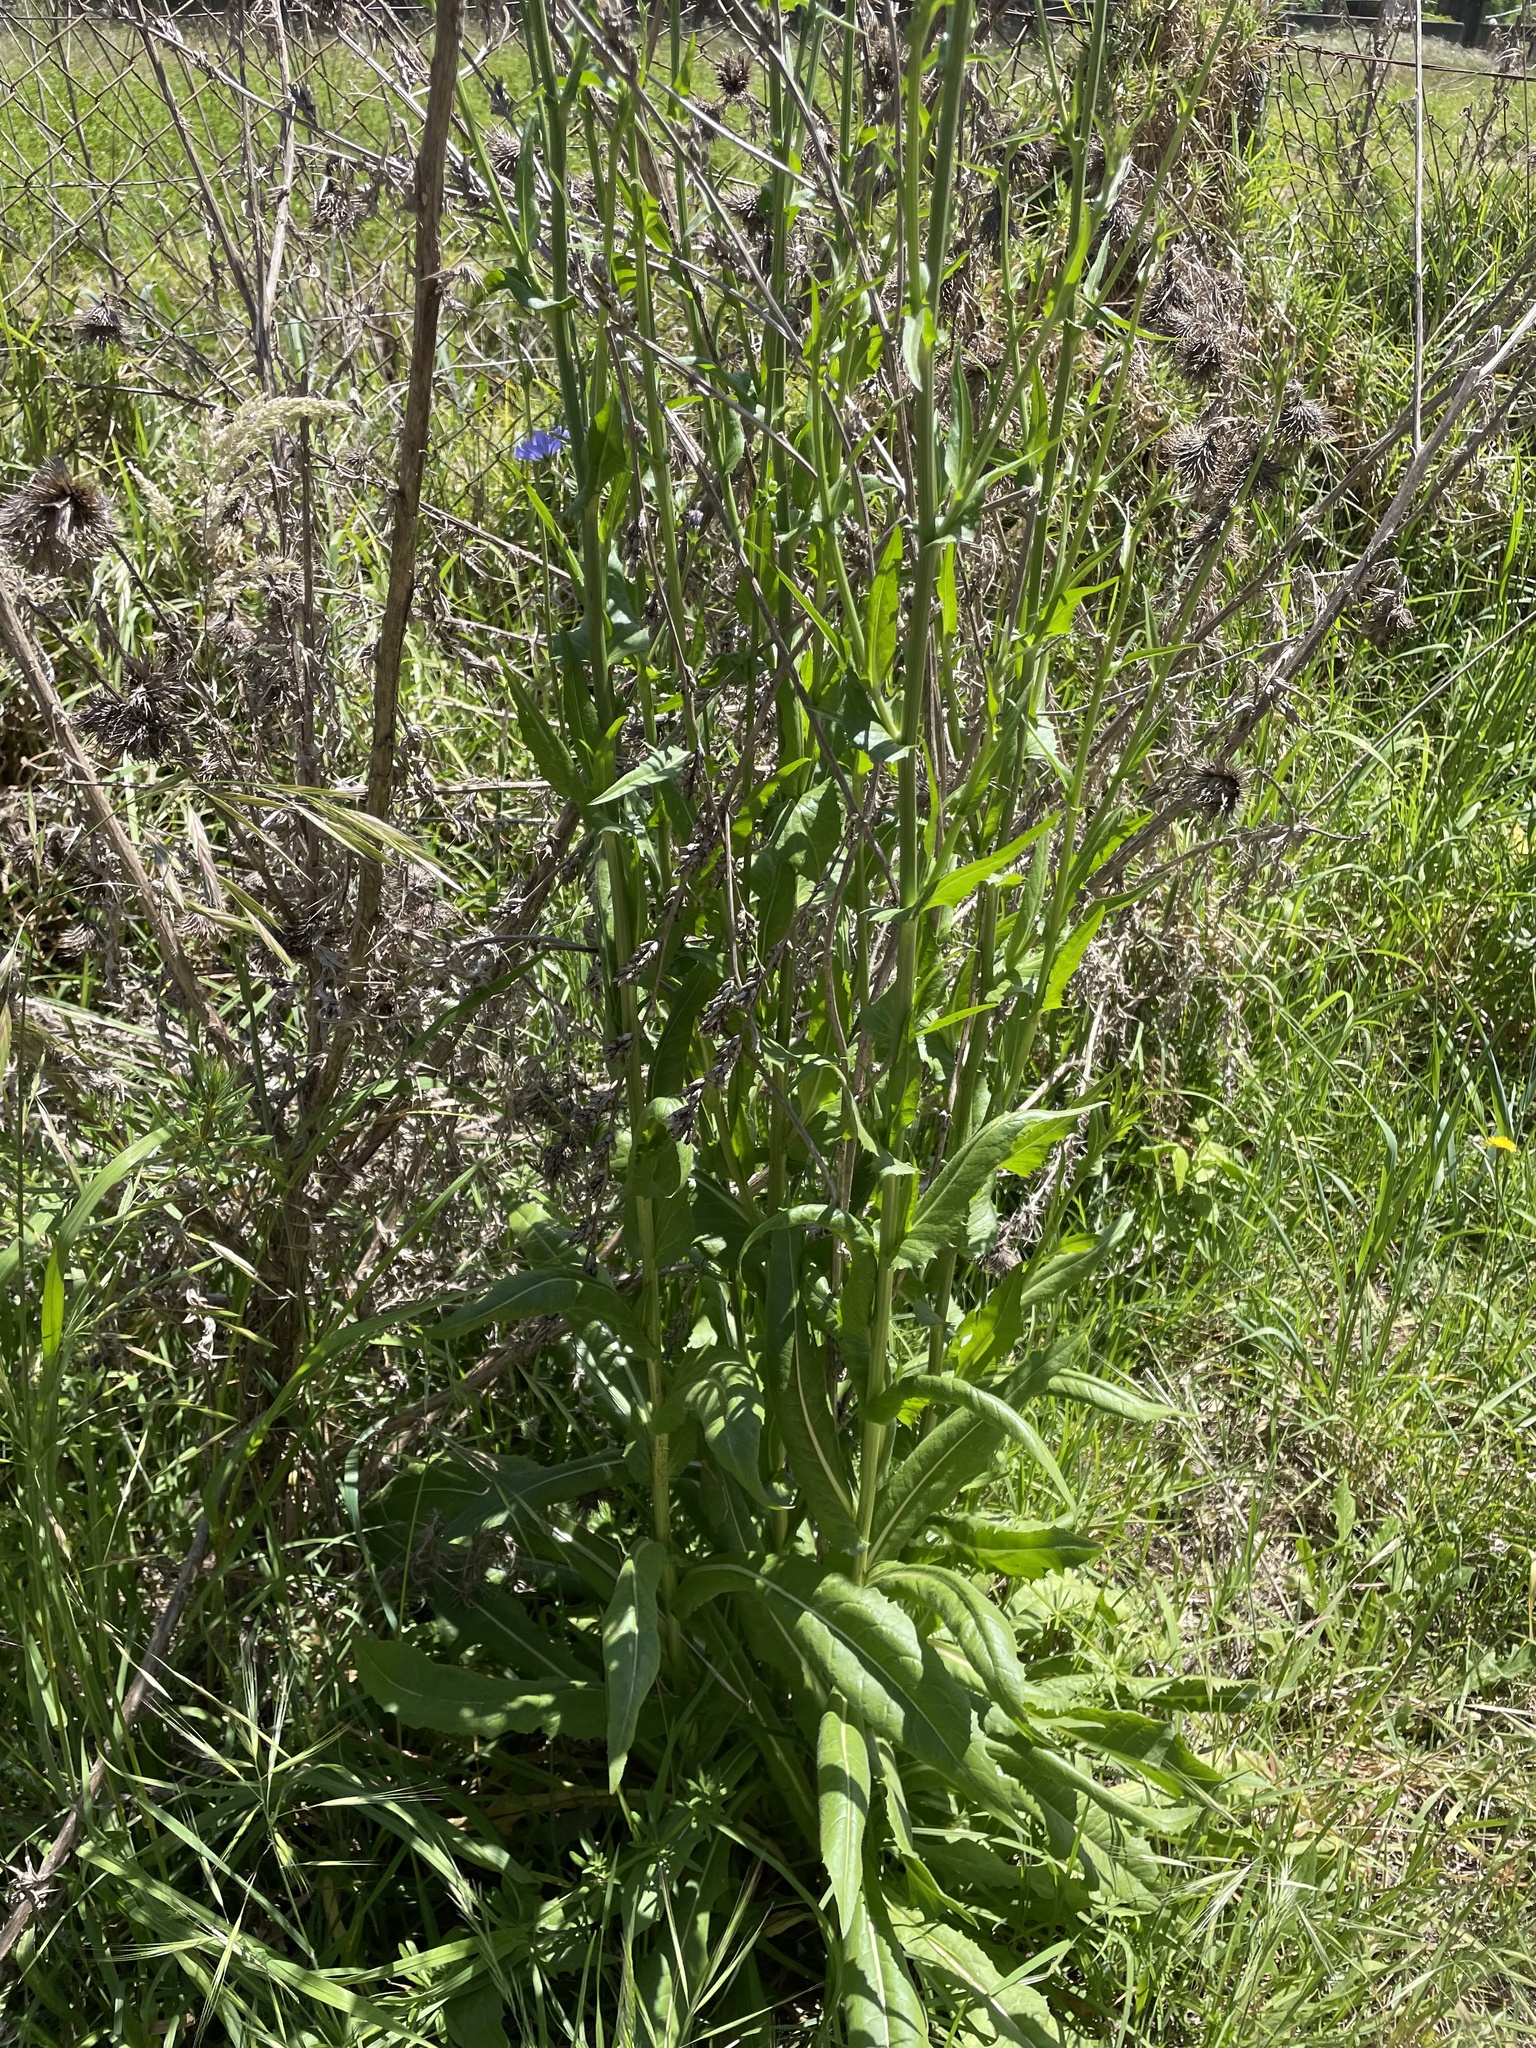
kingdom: Plantae
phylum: Tracheophyta
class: Magnoliopsida
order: Asterales
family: Asteraceae
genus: Cichorium
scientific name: Cichorium intybus
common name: Chicory
